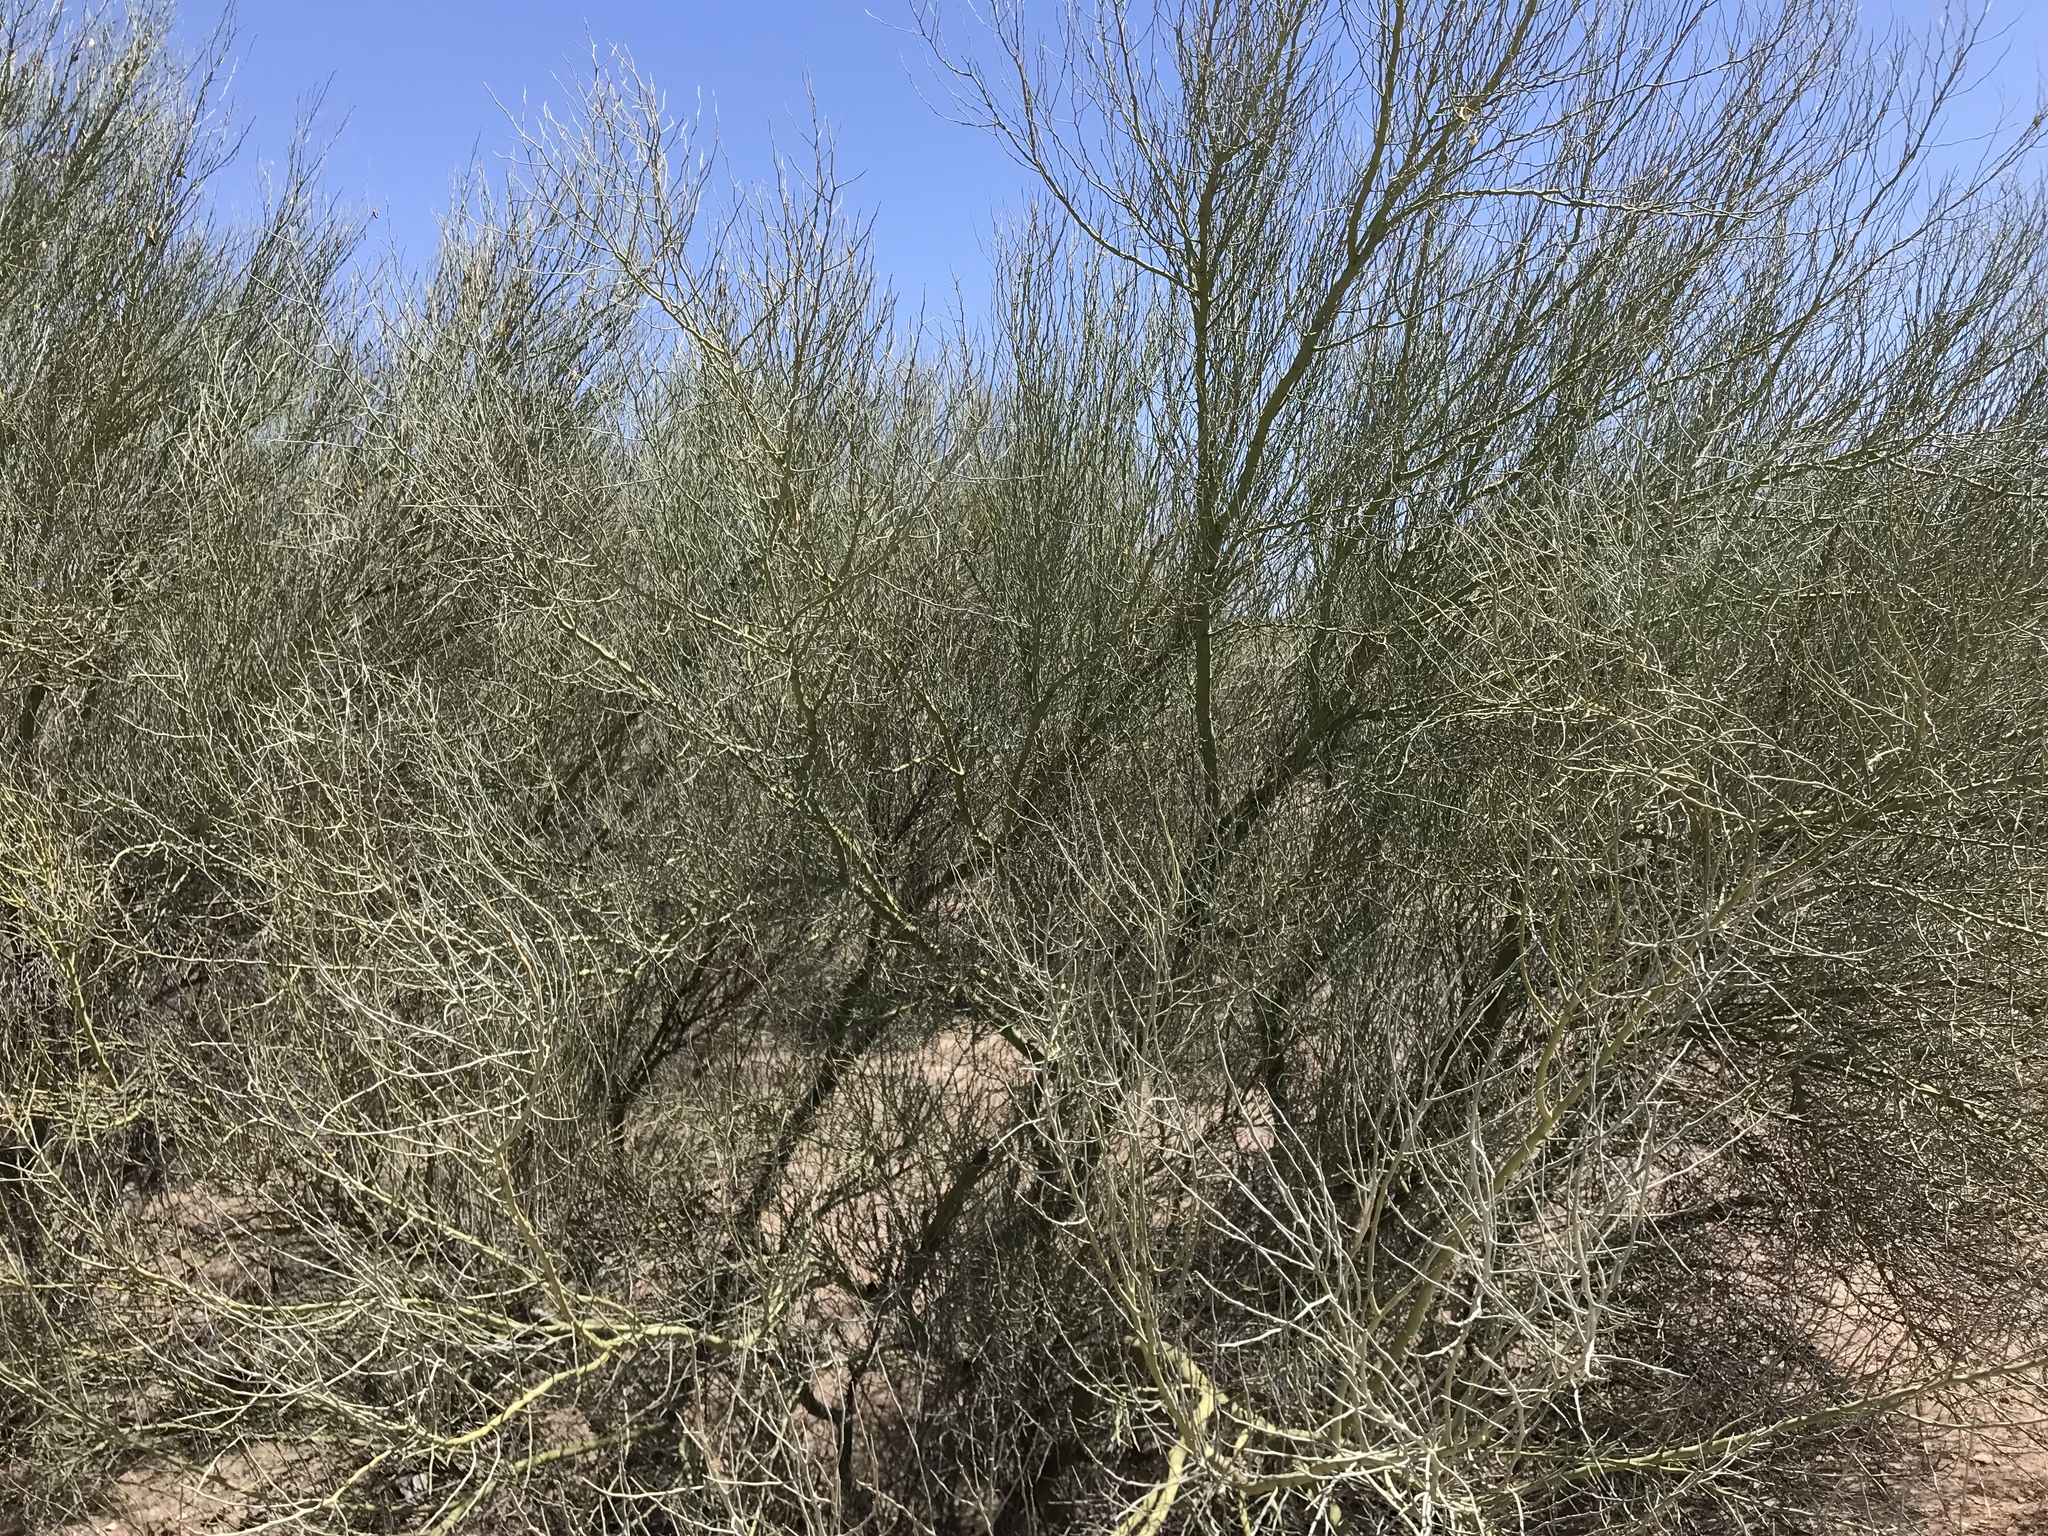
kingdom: Plantae
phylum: Tracheophyta
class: Magnoliopsida
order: Fabales
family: Fabaceae
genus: Parkinsonia
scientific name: Parkinsonia florida
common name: Blue paloverde
